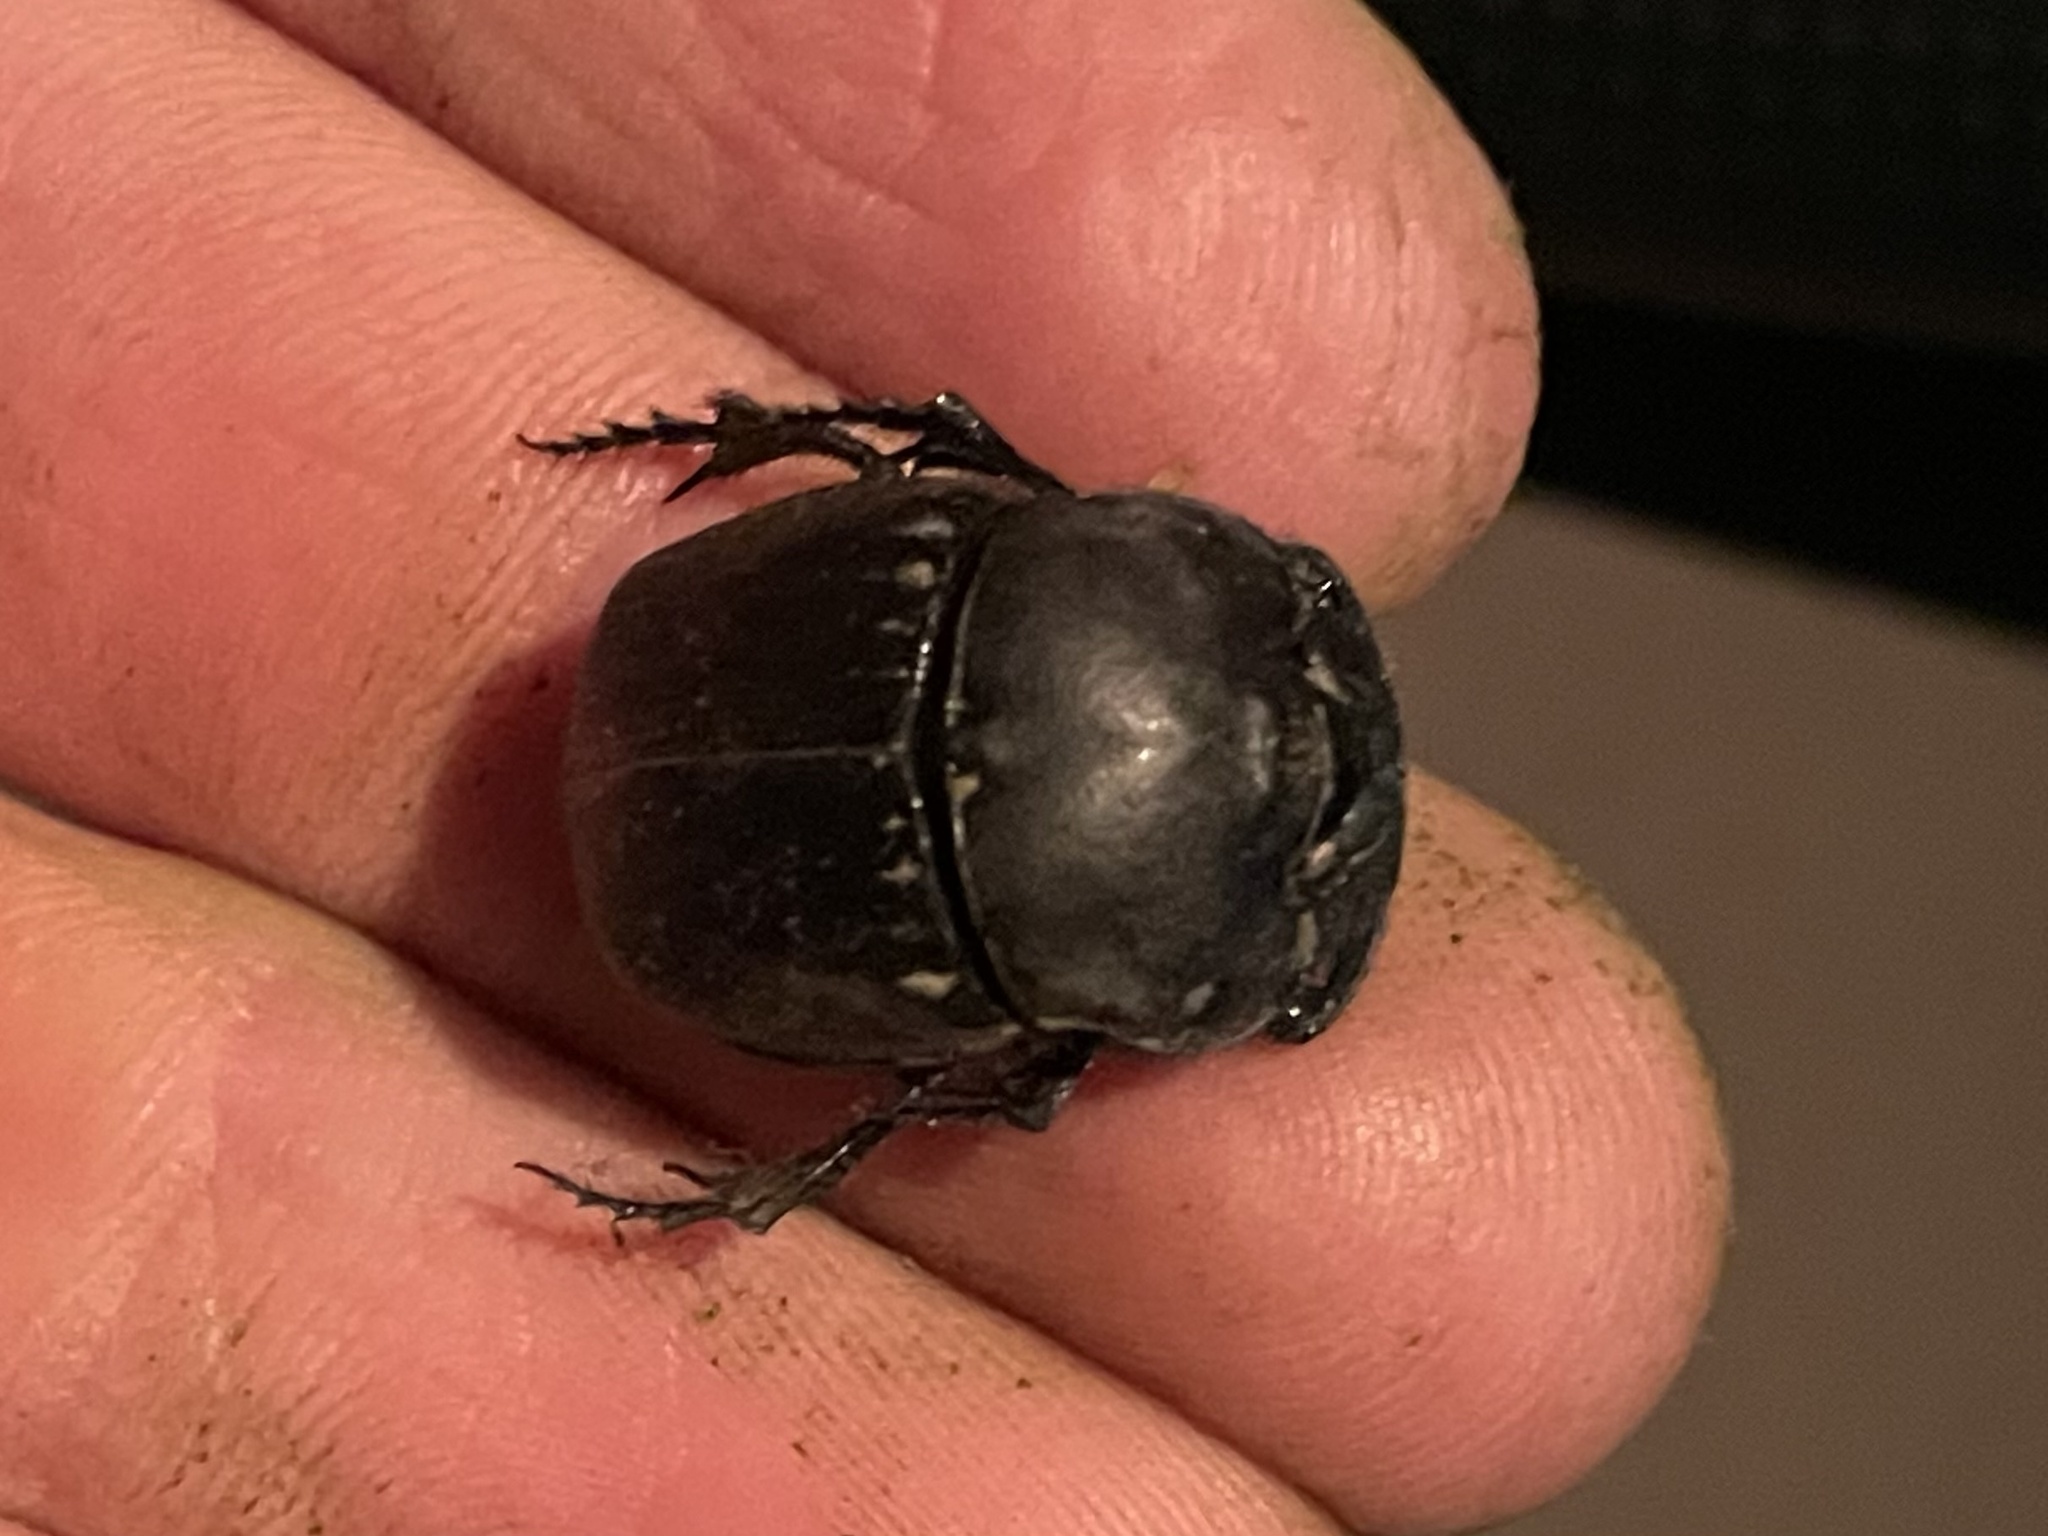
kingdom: Animalia
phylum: Arthropoda
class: Insecta
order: Coleoptera
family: Scarabaeidae
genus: Phanaeus
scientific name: Phanaeus texensis
